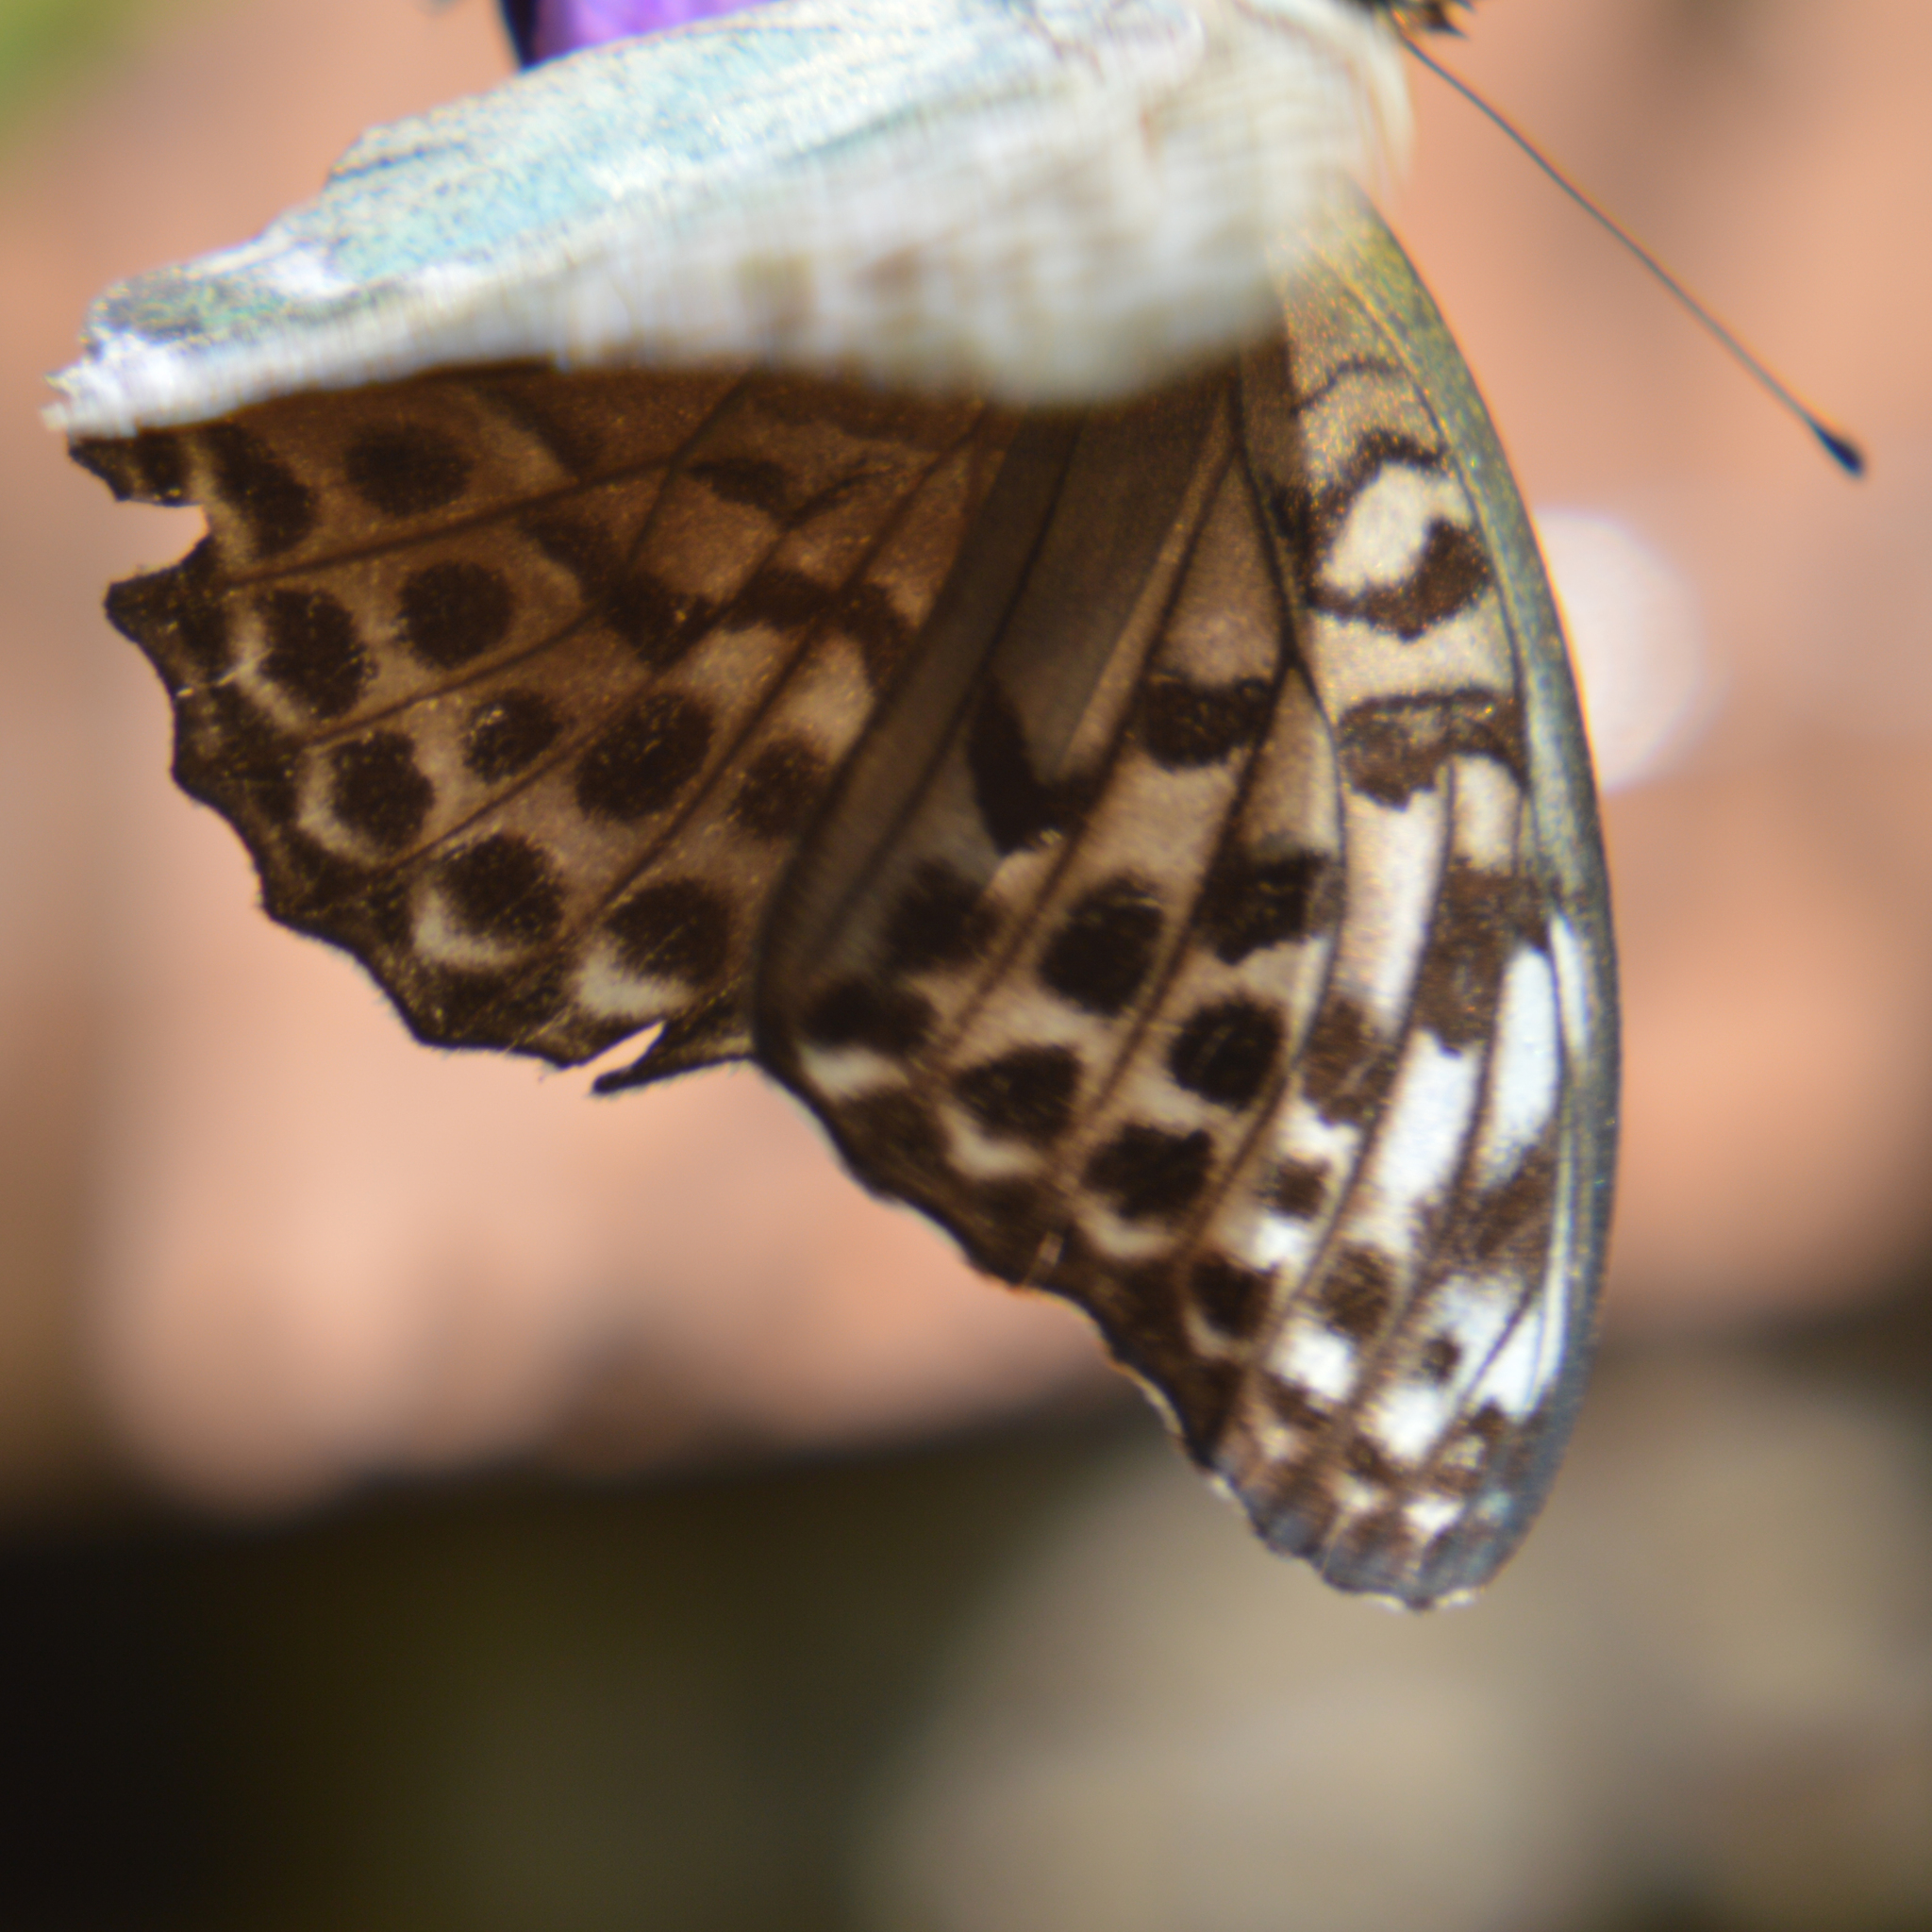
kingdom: Animalia
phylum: Arthropoda
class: Insecta
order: Lepidoptera
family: Nymphalidae
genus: Argynnis
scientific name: Argynnis paphia
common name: Silver-washed fritillary
